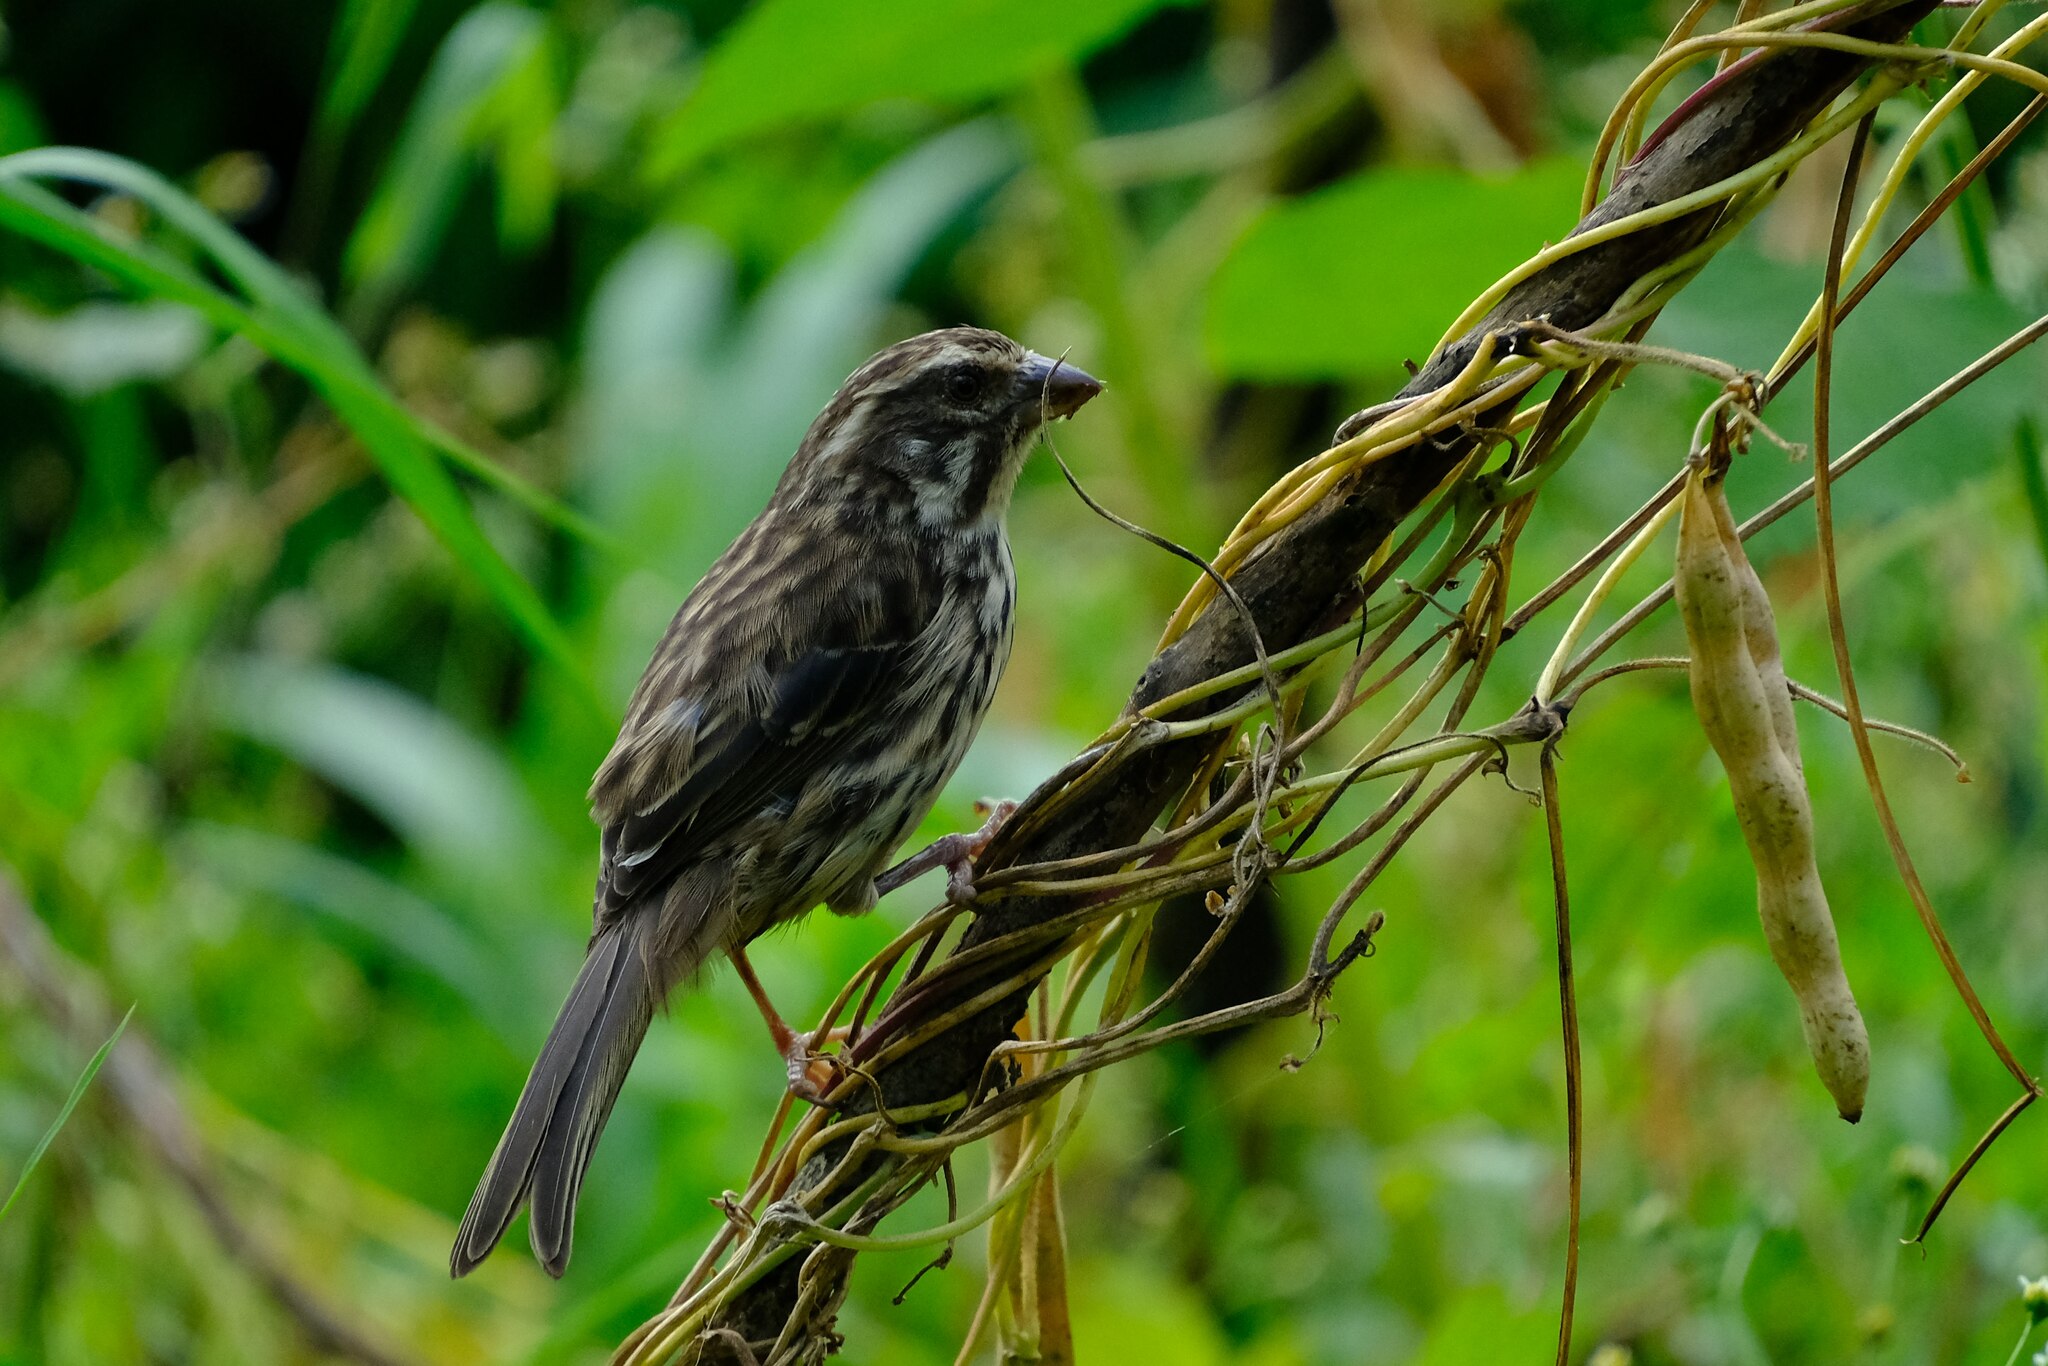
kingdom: Animalia
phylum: Chordata
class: Aves
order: Passeriformes
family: Fringillidae
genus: Crithagra
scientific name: Crithagra striolata
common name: Streaky seedeater
